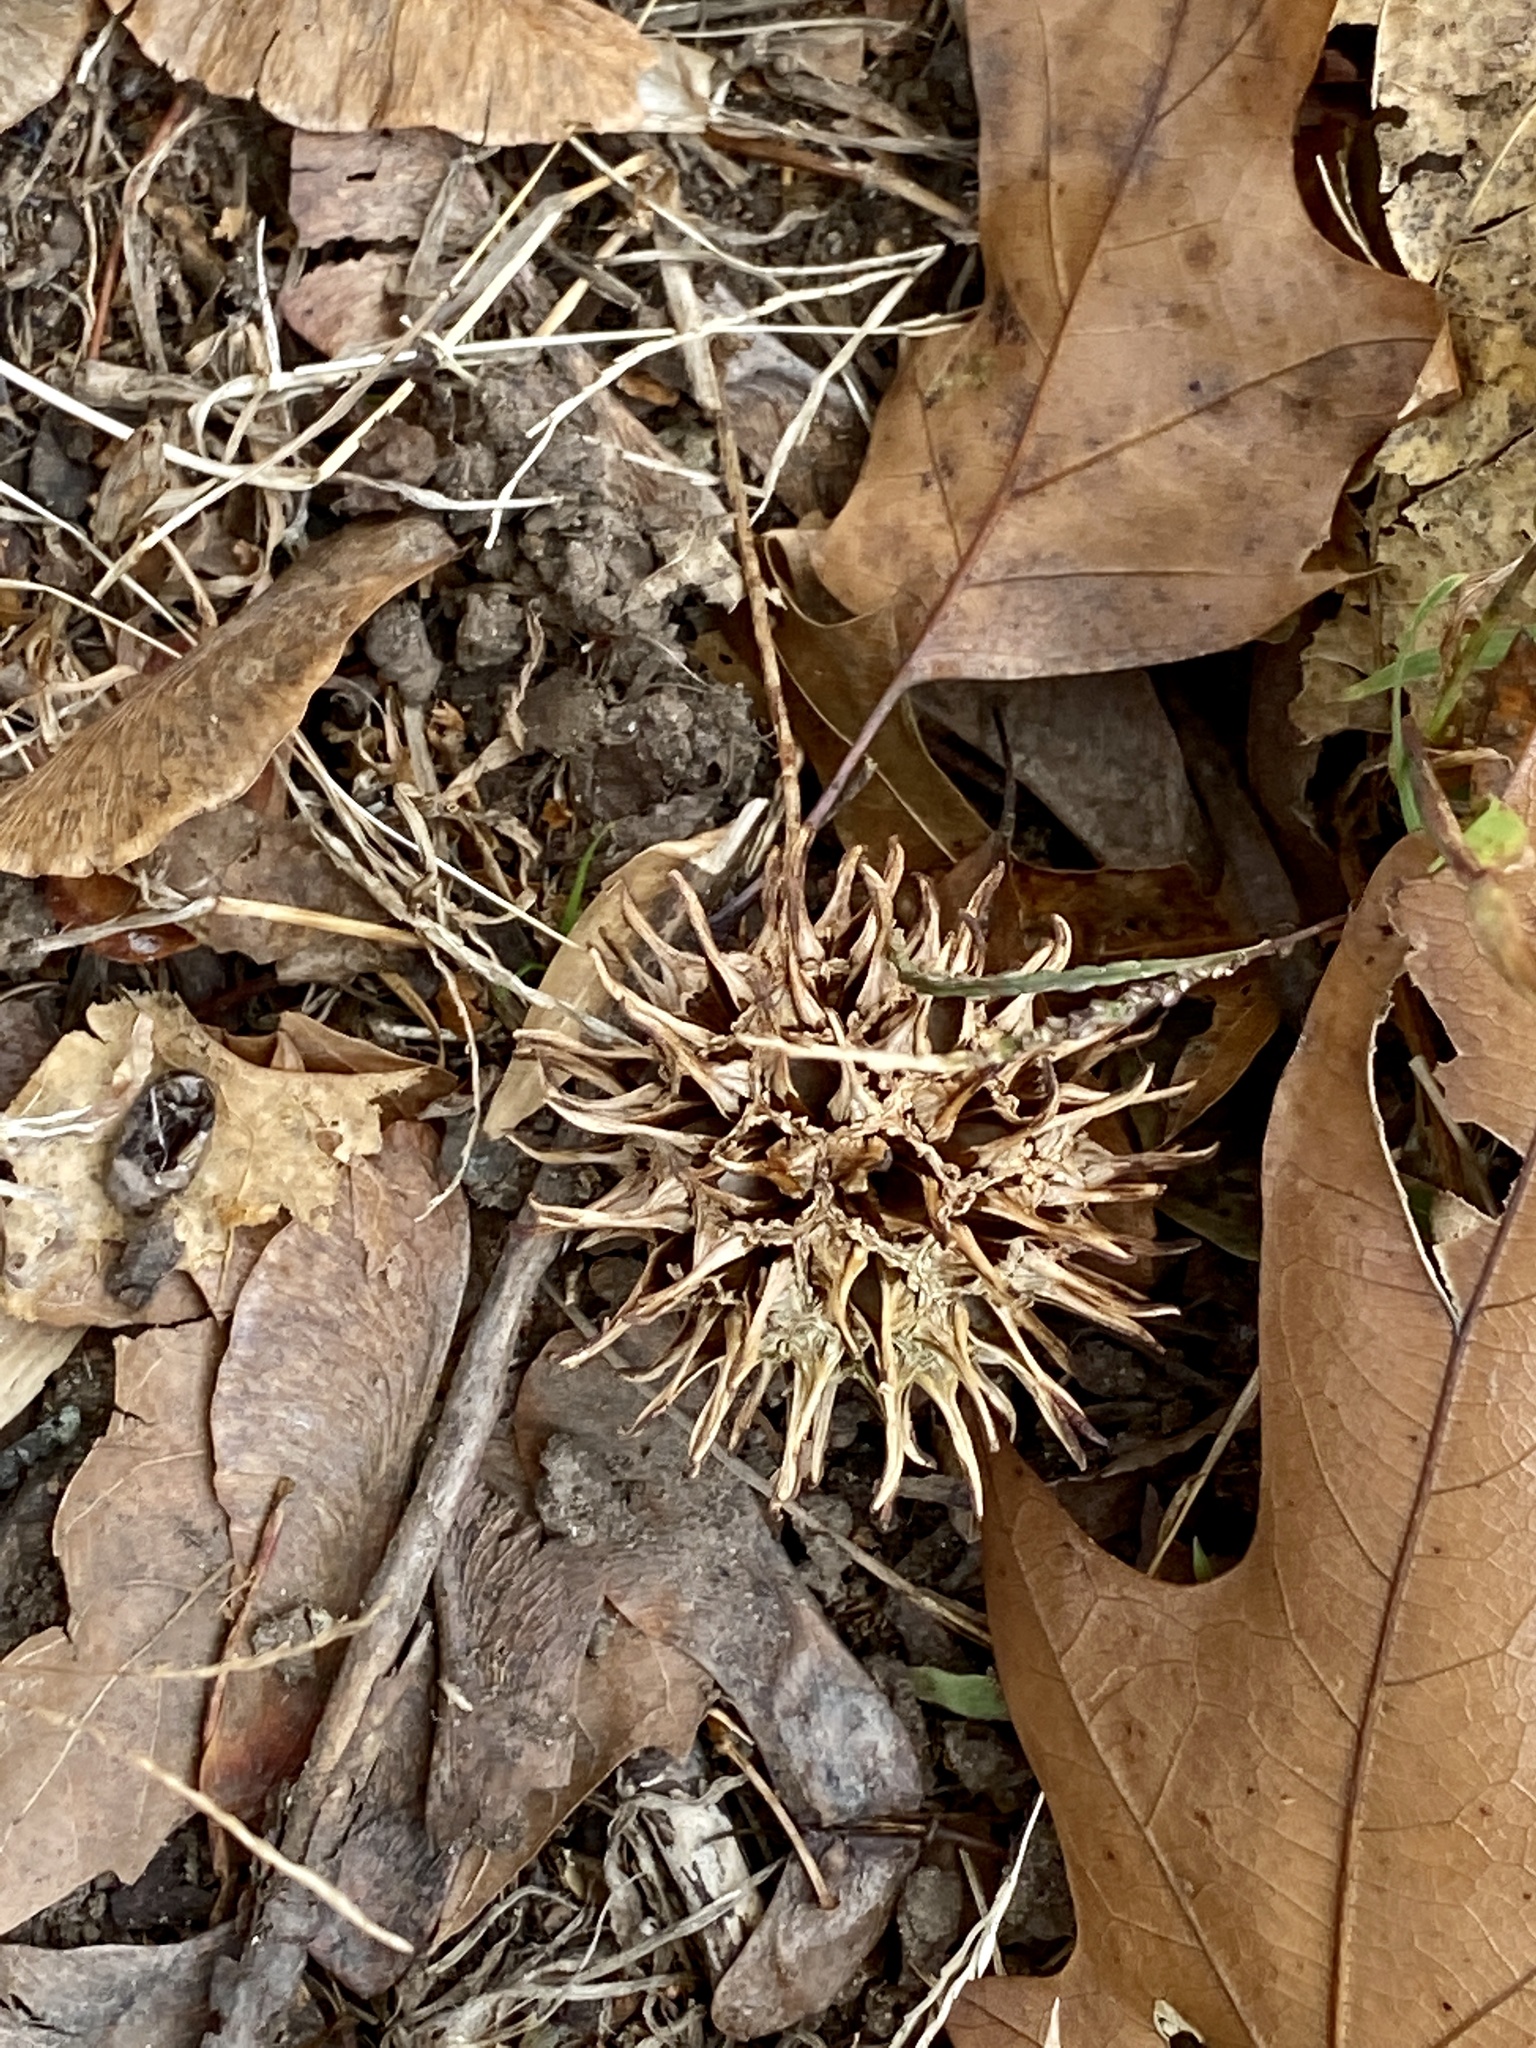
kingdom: Plantae
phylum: Tracheophyta
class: Magnoliopsida
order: Saxifragales
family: Altingiaceae
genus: Liquidambar
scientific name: Liquidambar styraciflua
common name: Sweet gum
